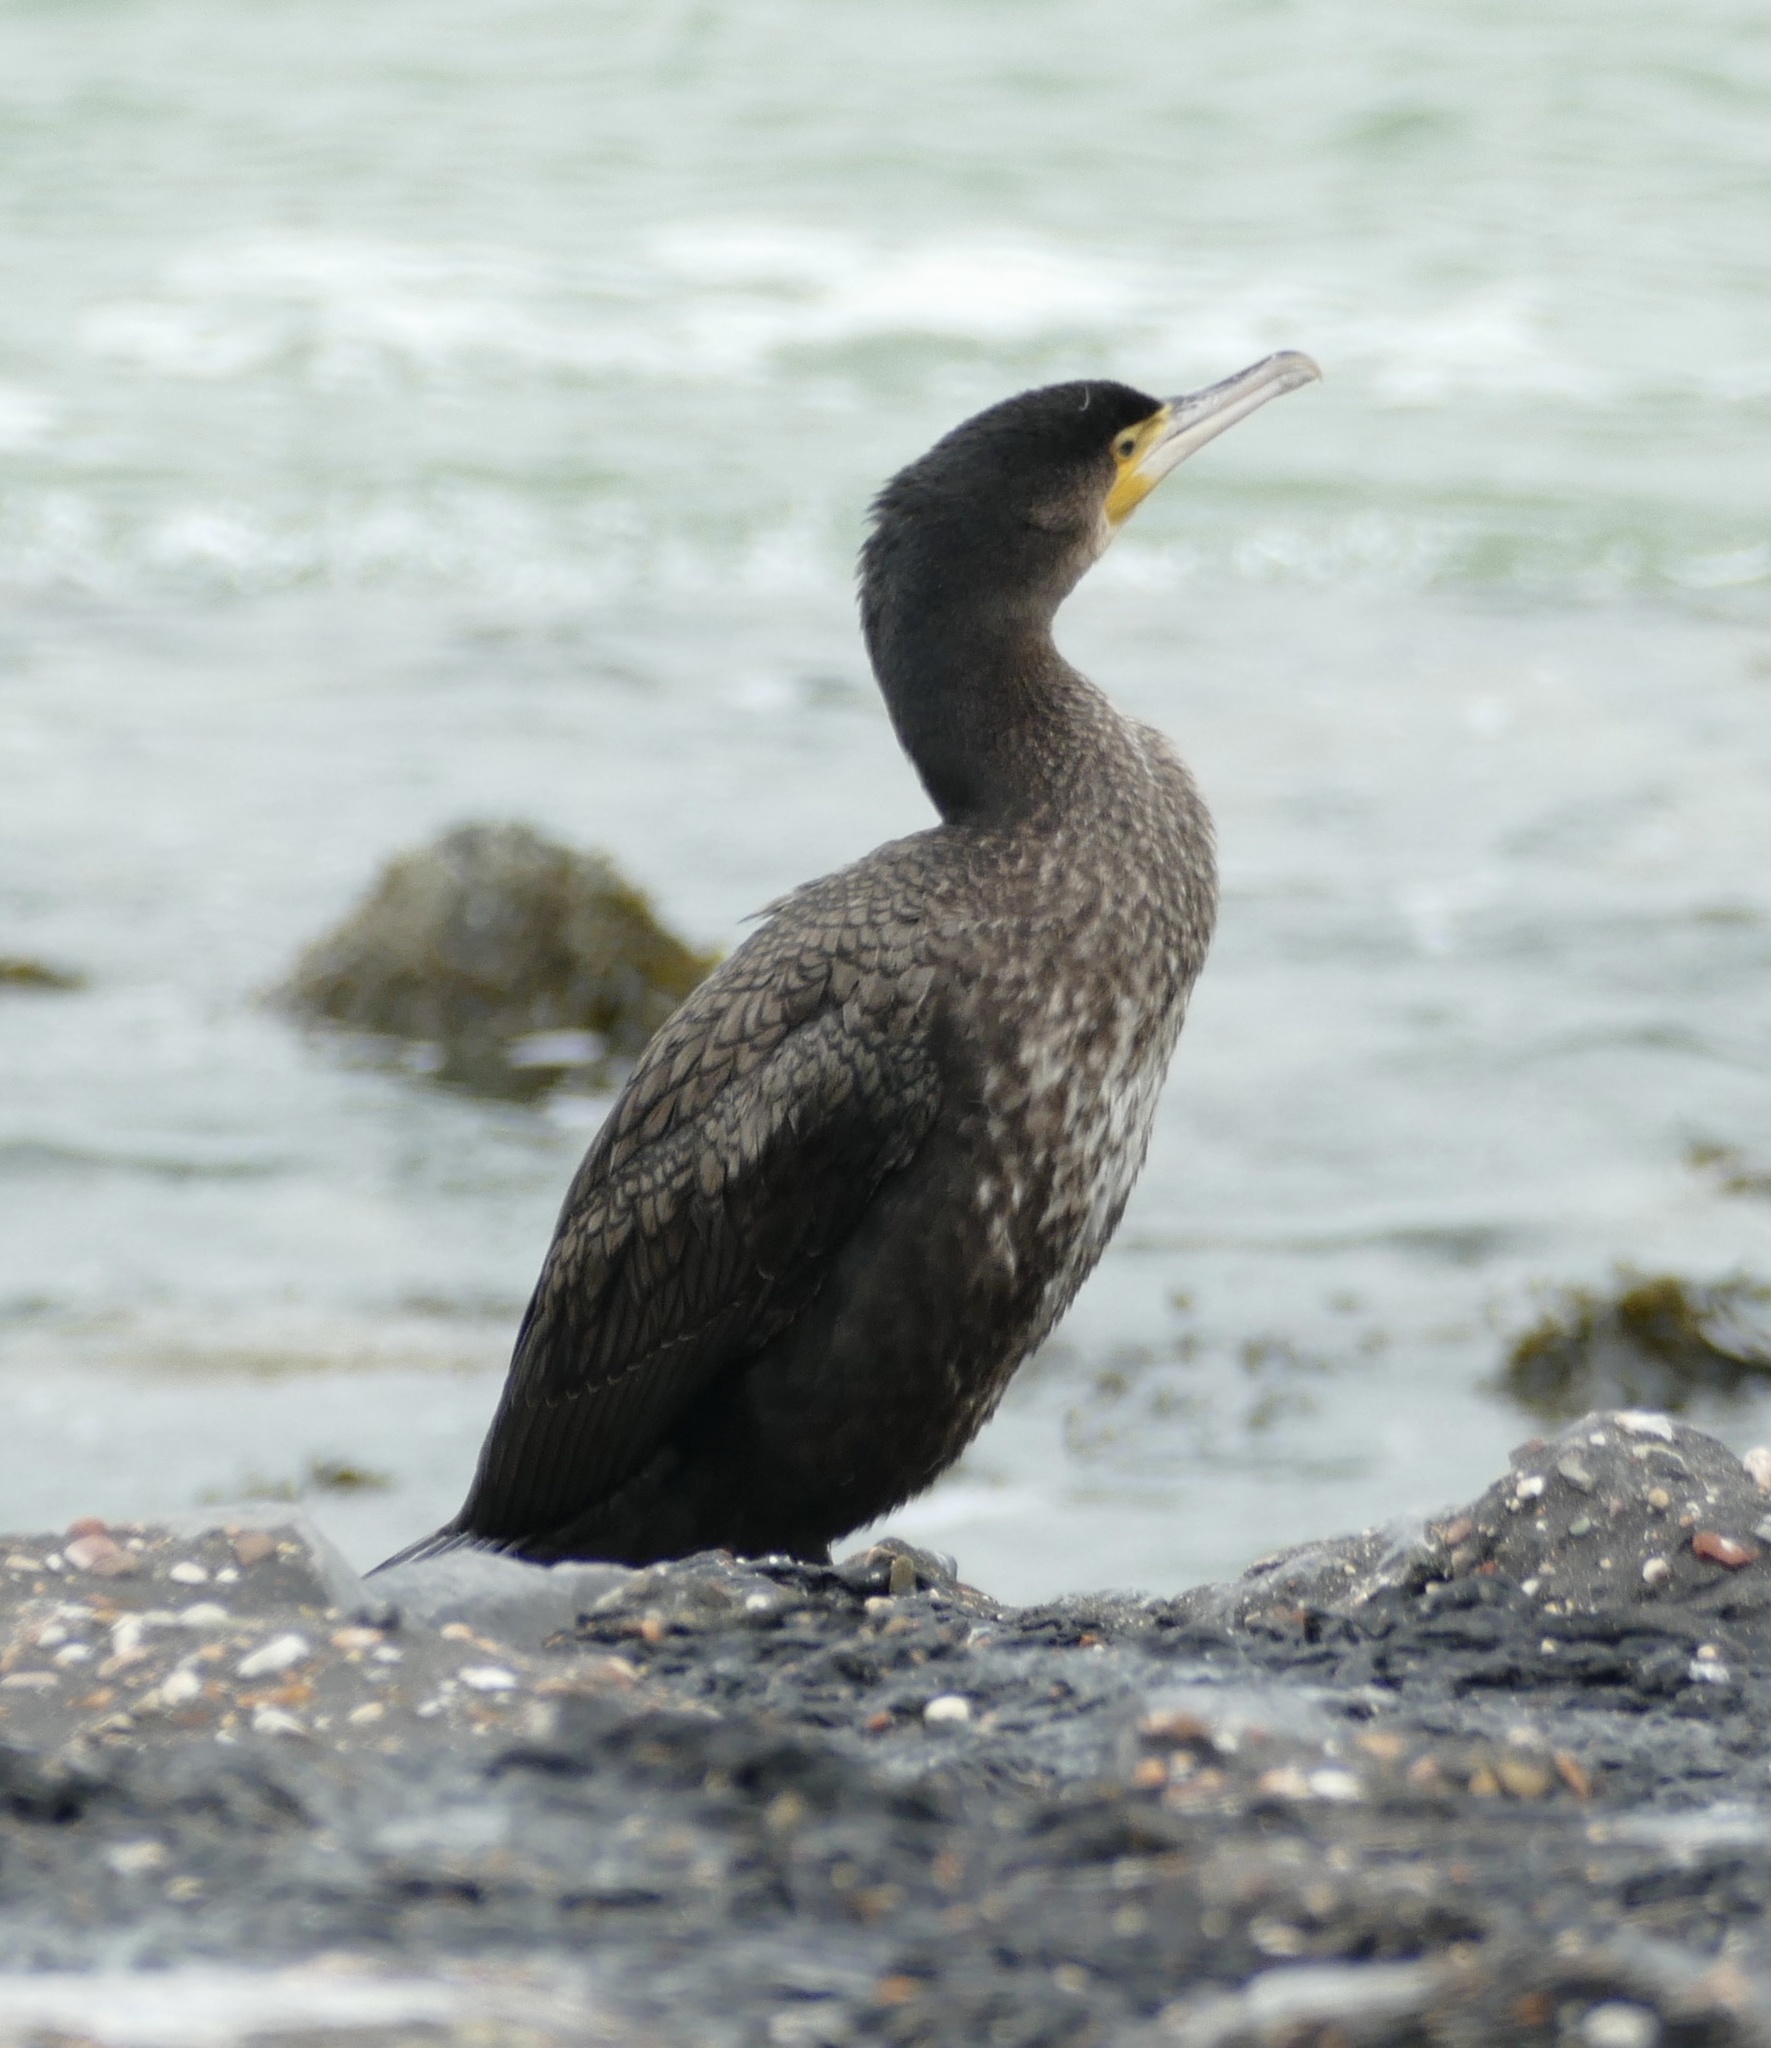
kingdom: Animalia
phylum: Chordata
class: Aves
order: Suliformes
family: Phalacrocoracidae
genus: Phalacrocorax
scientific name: Phalacrocorax carbo
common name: Great cormorant
